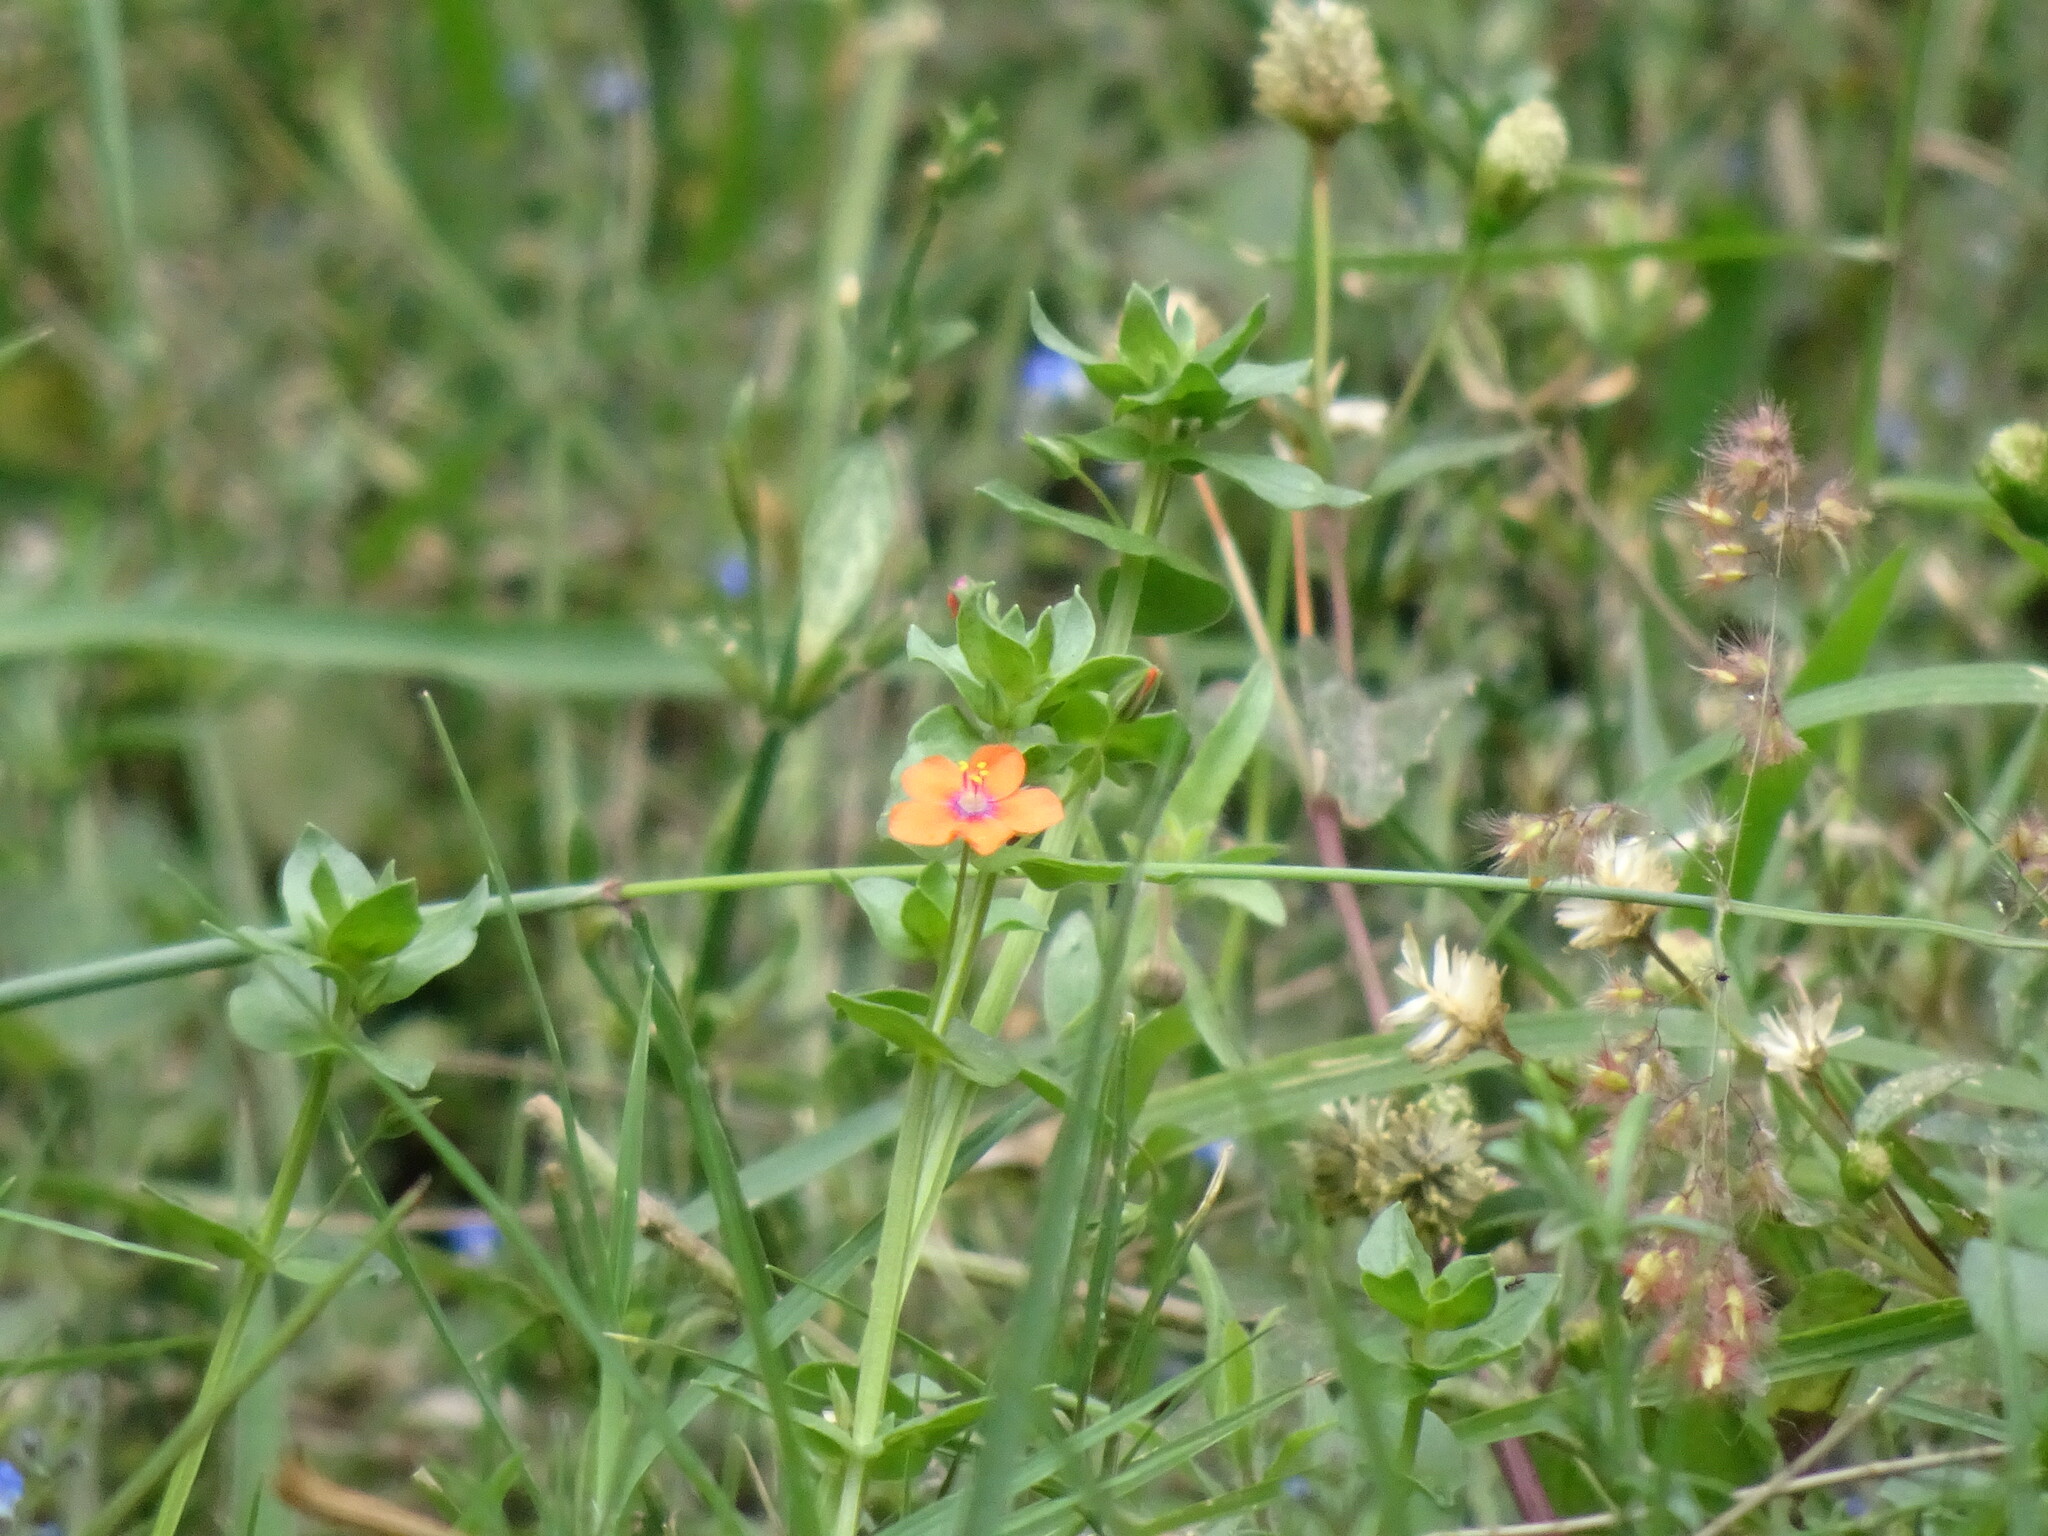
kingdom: Plantae
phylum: Tracheophyta
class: Magnoliopsida
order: Ericales
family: Primulaceae
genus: Lysimachia
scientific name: Lysimachia arvensis
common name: Scarlet pimpernel
